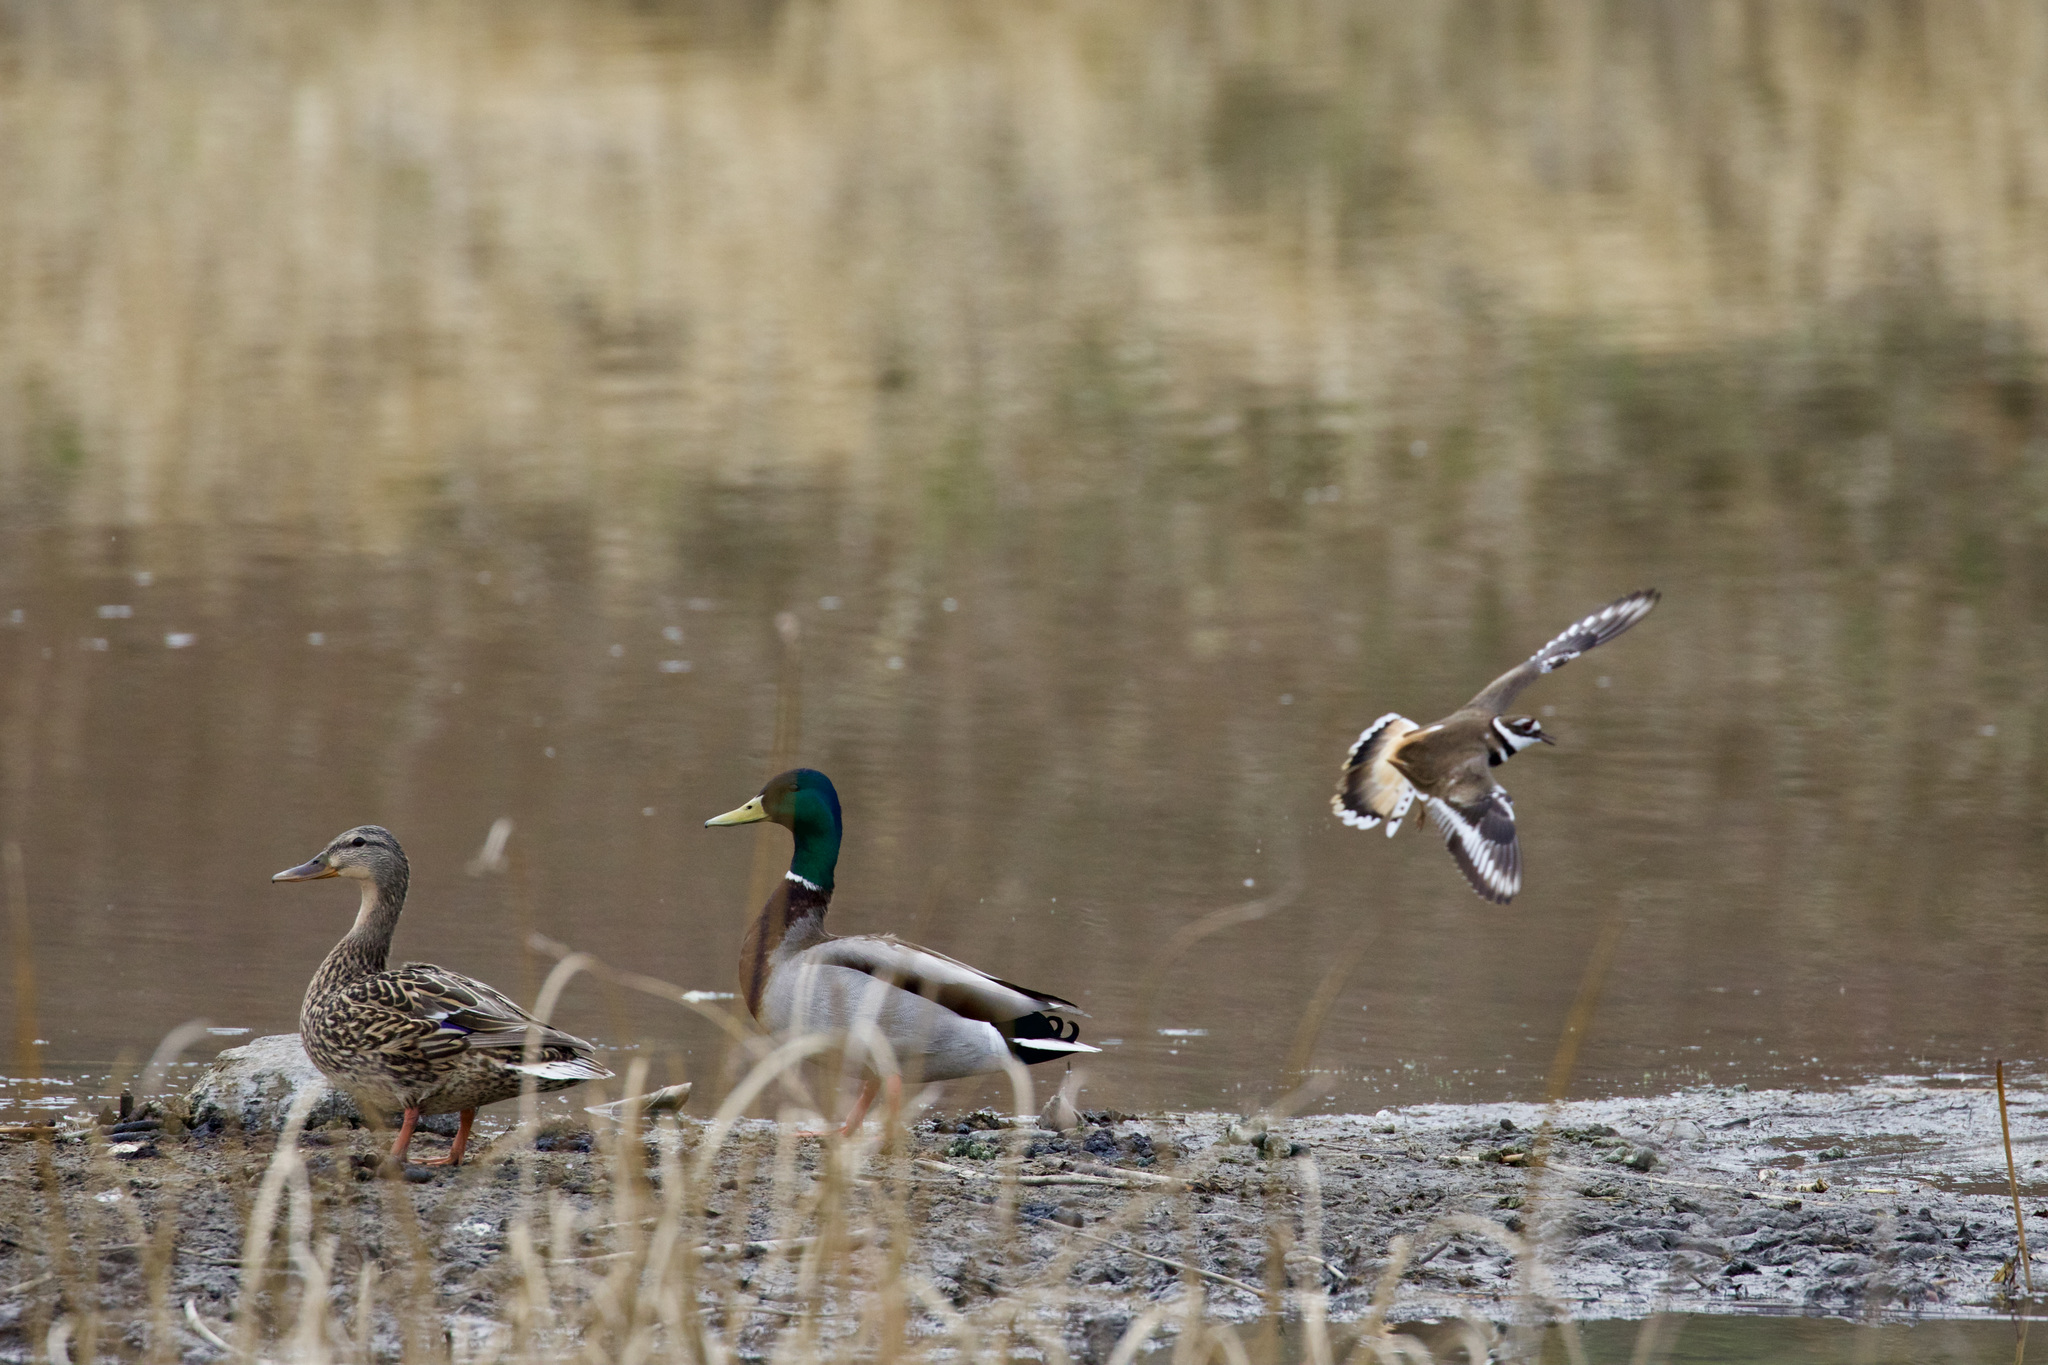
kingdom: Animalia
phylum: Chordata
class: Aves
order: Anseriformes
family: Anatidae
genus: Anas
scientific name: Anas platyrhynchos
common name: Mallard
